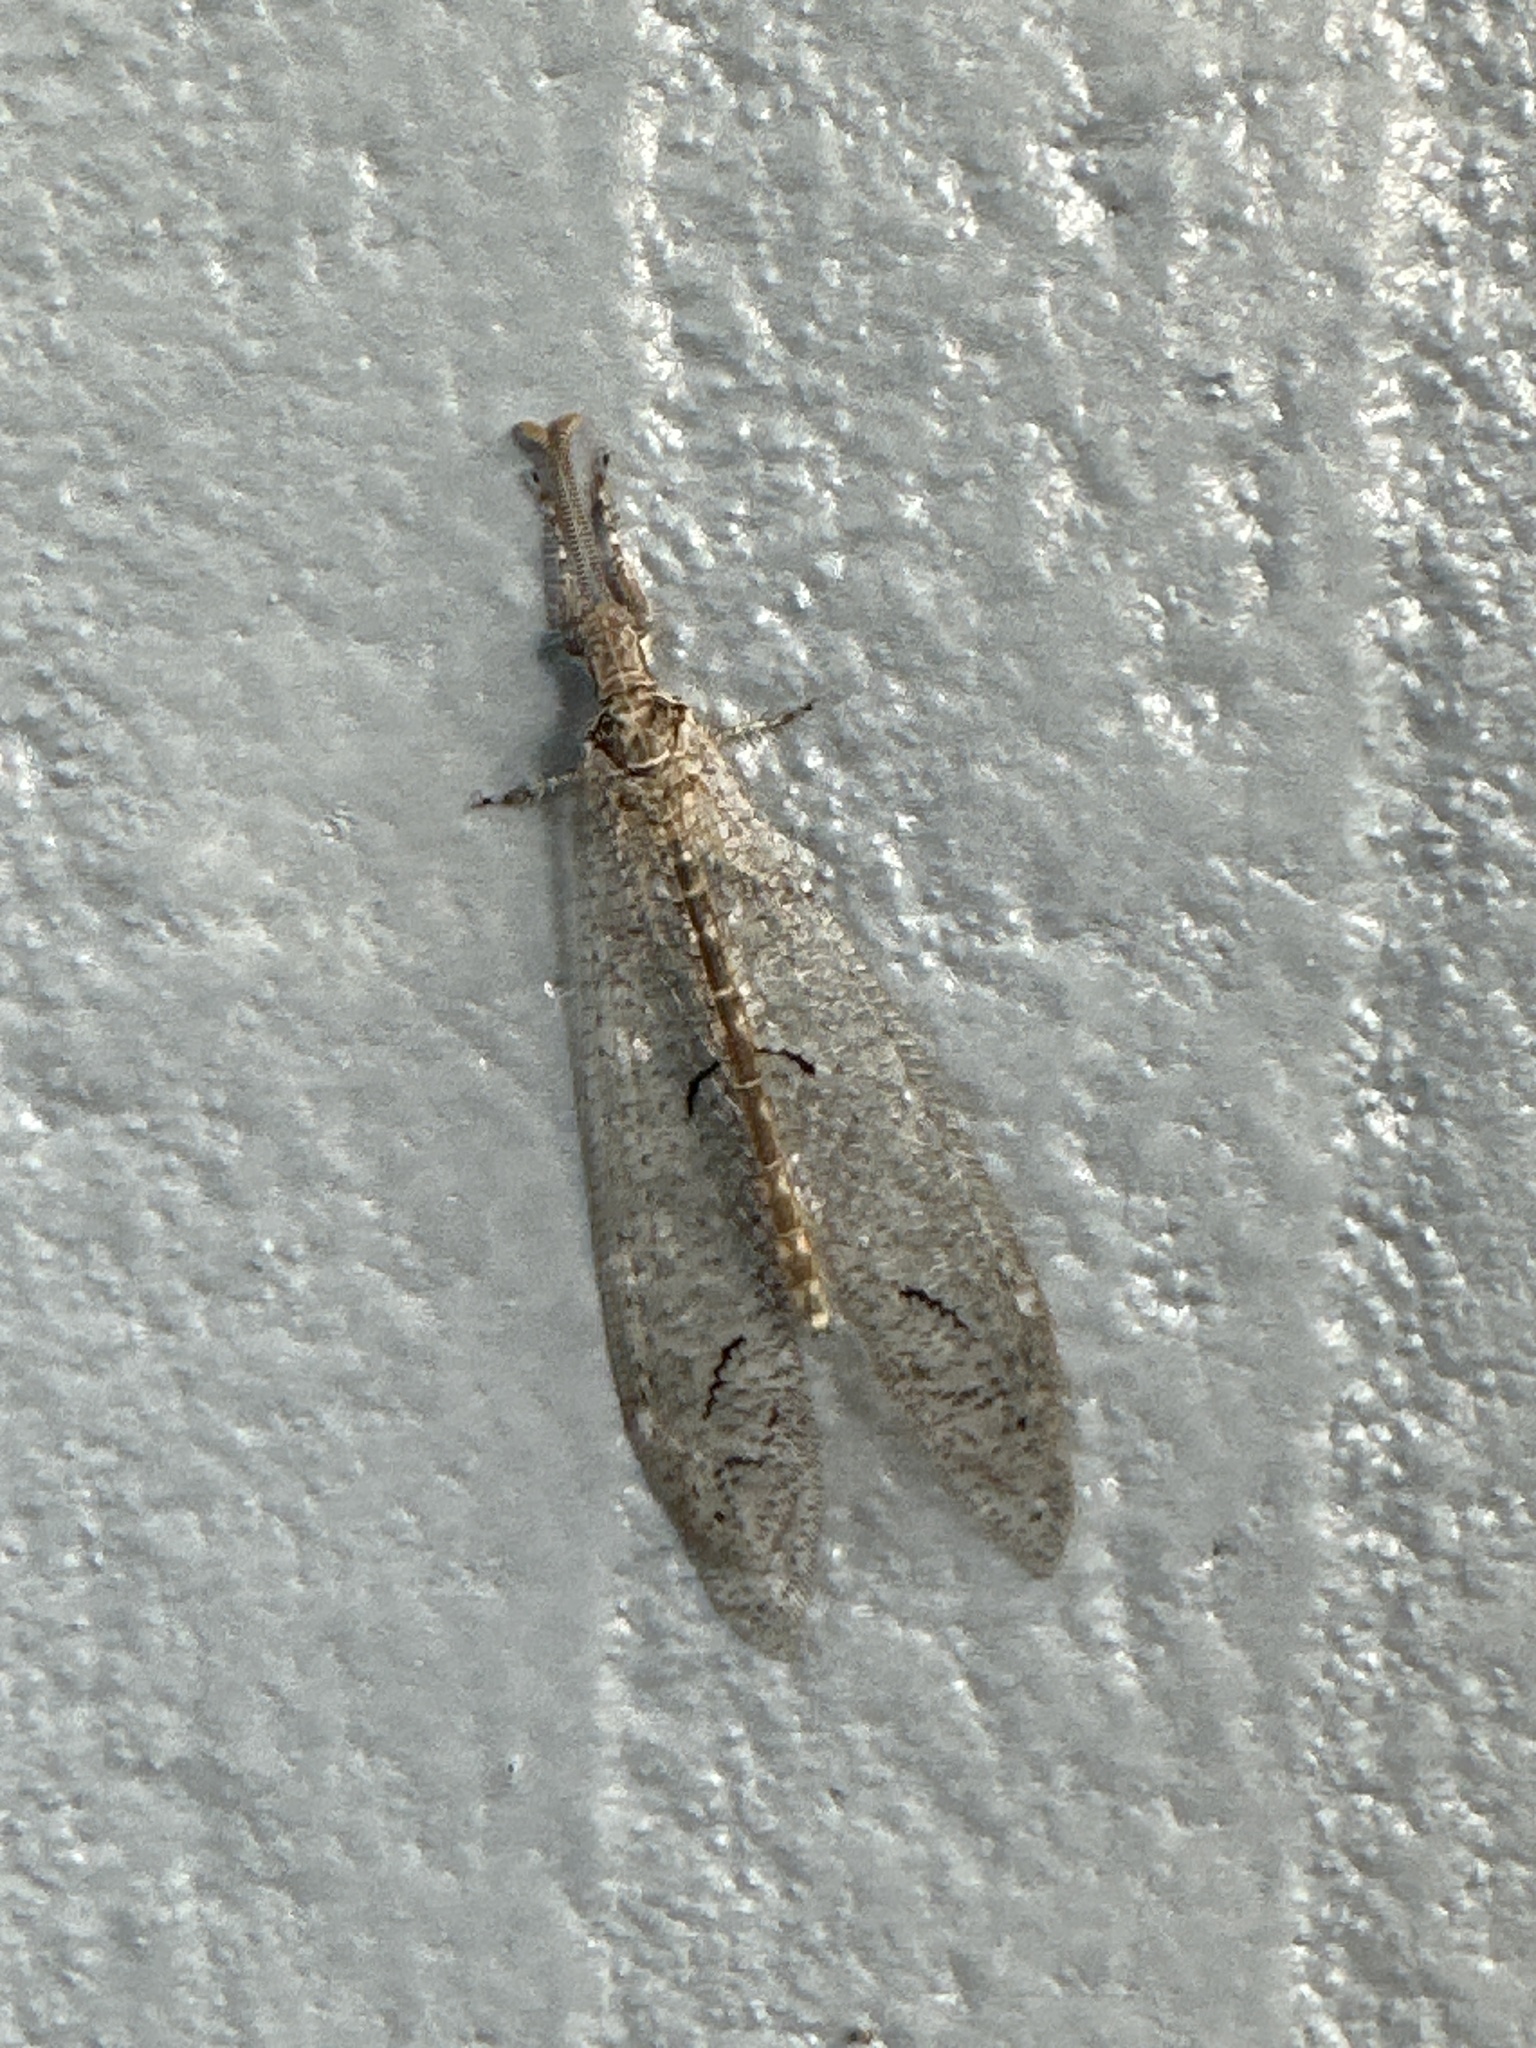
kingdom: Animalia
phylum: Arthropoda
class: Insecta
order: Neuroptera
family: Myrmeleontidae
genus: Euptilon
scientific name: Euptilon ornatum
